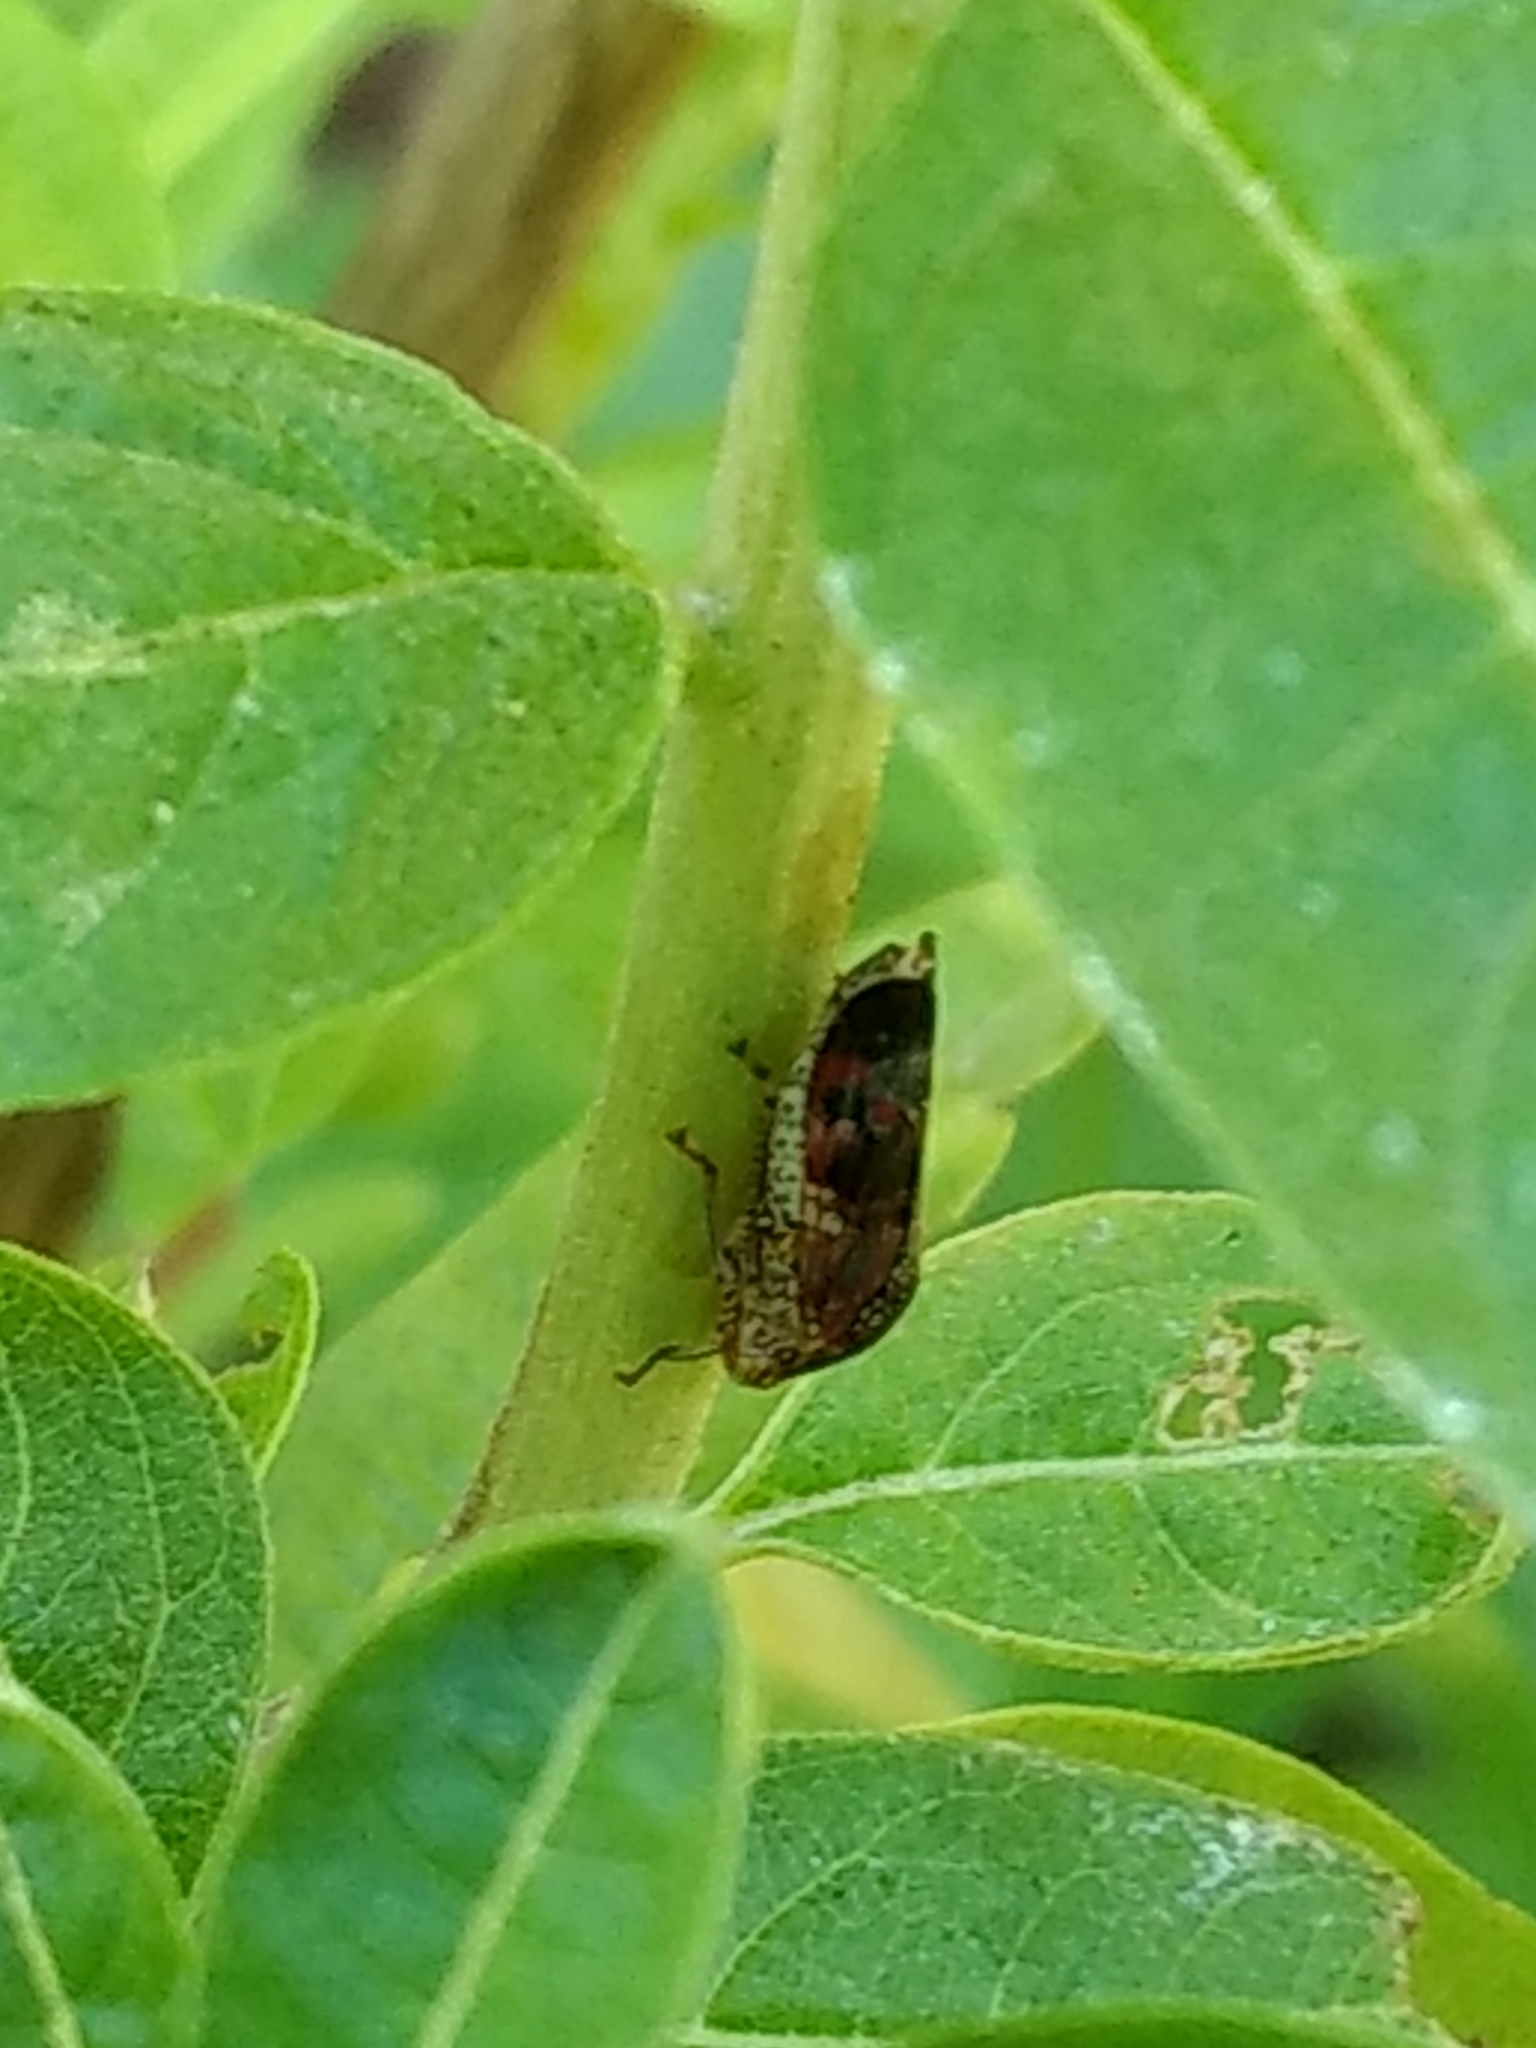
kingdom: Animalia
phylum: Arthropoda
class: Insecta
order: Hemiptera
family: Cicadellidae
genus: Homalodisca
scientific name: Homalodisca vitripennis
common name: Glassy-winged sharpshooter
